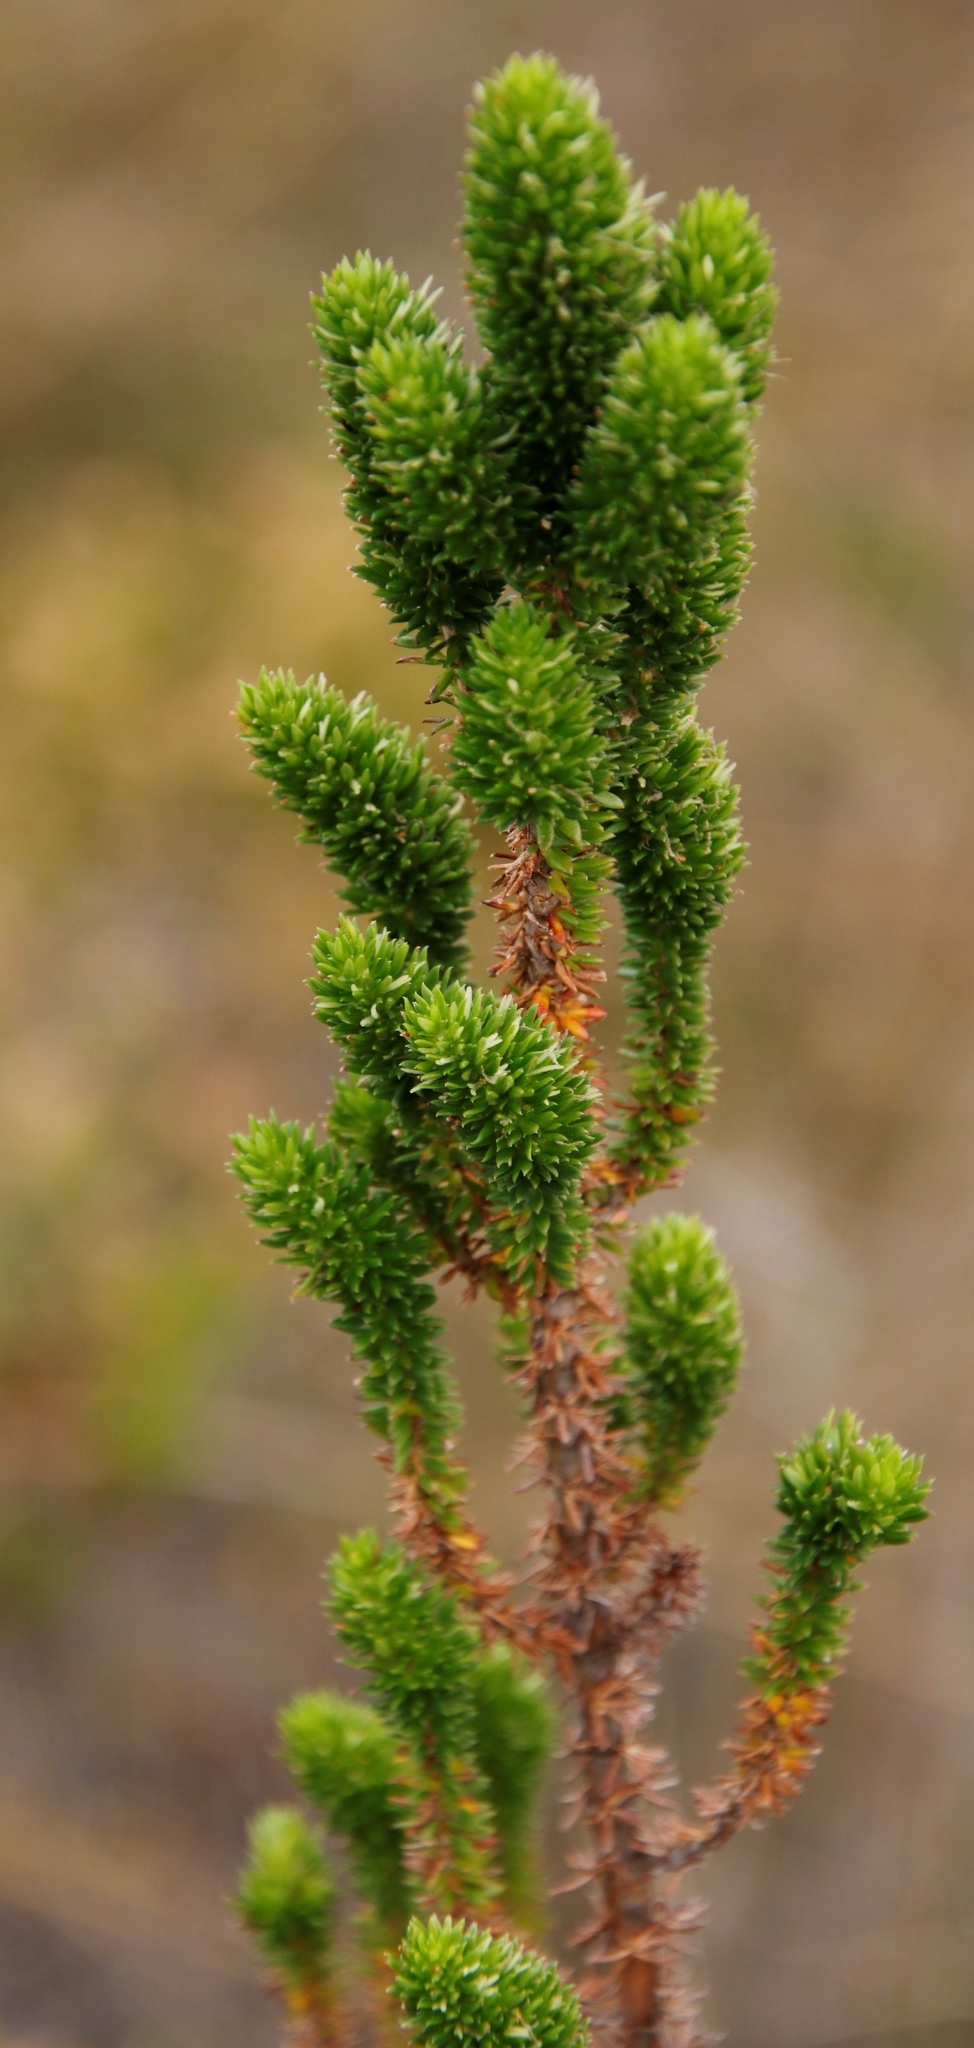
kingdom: Plantae
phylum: Tracheophyta
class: Magnoliopsida
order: Gentianales
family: Rubiaceae
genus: Anthospermum
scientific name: Anthospermum aethiopicum
